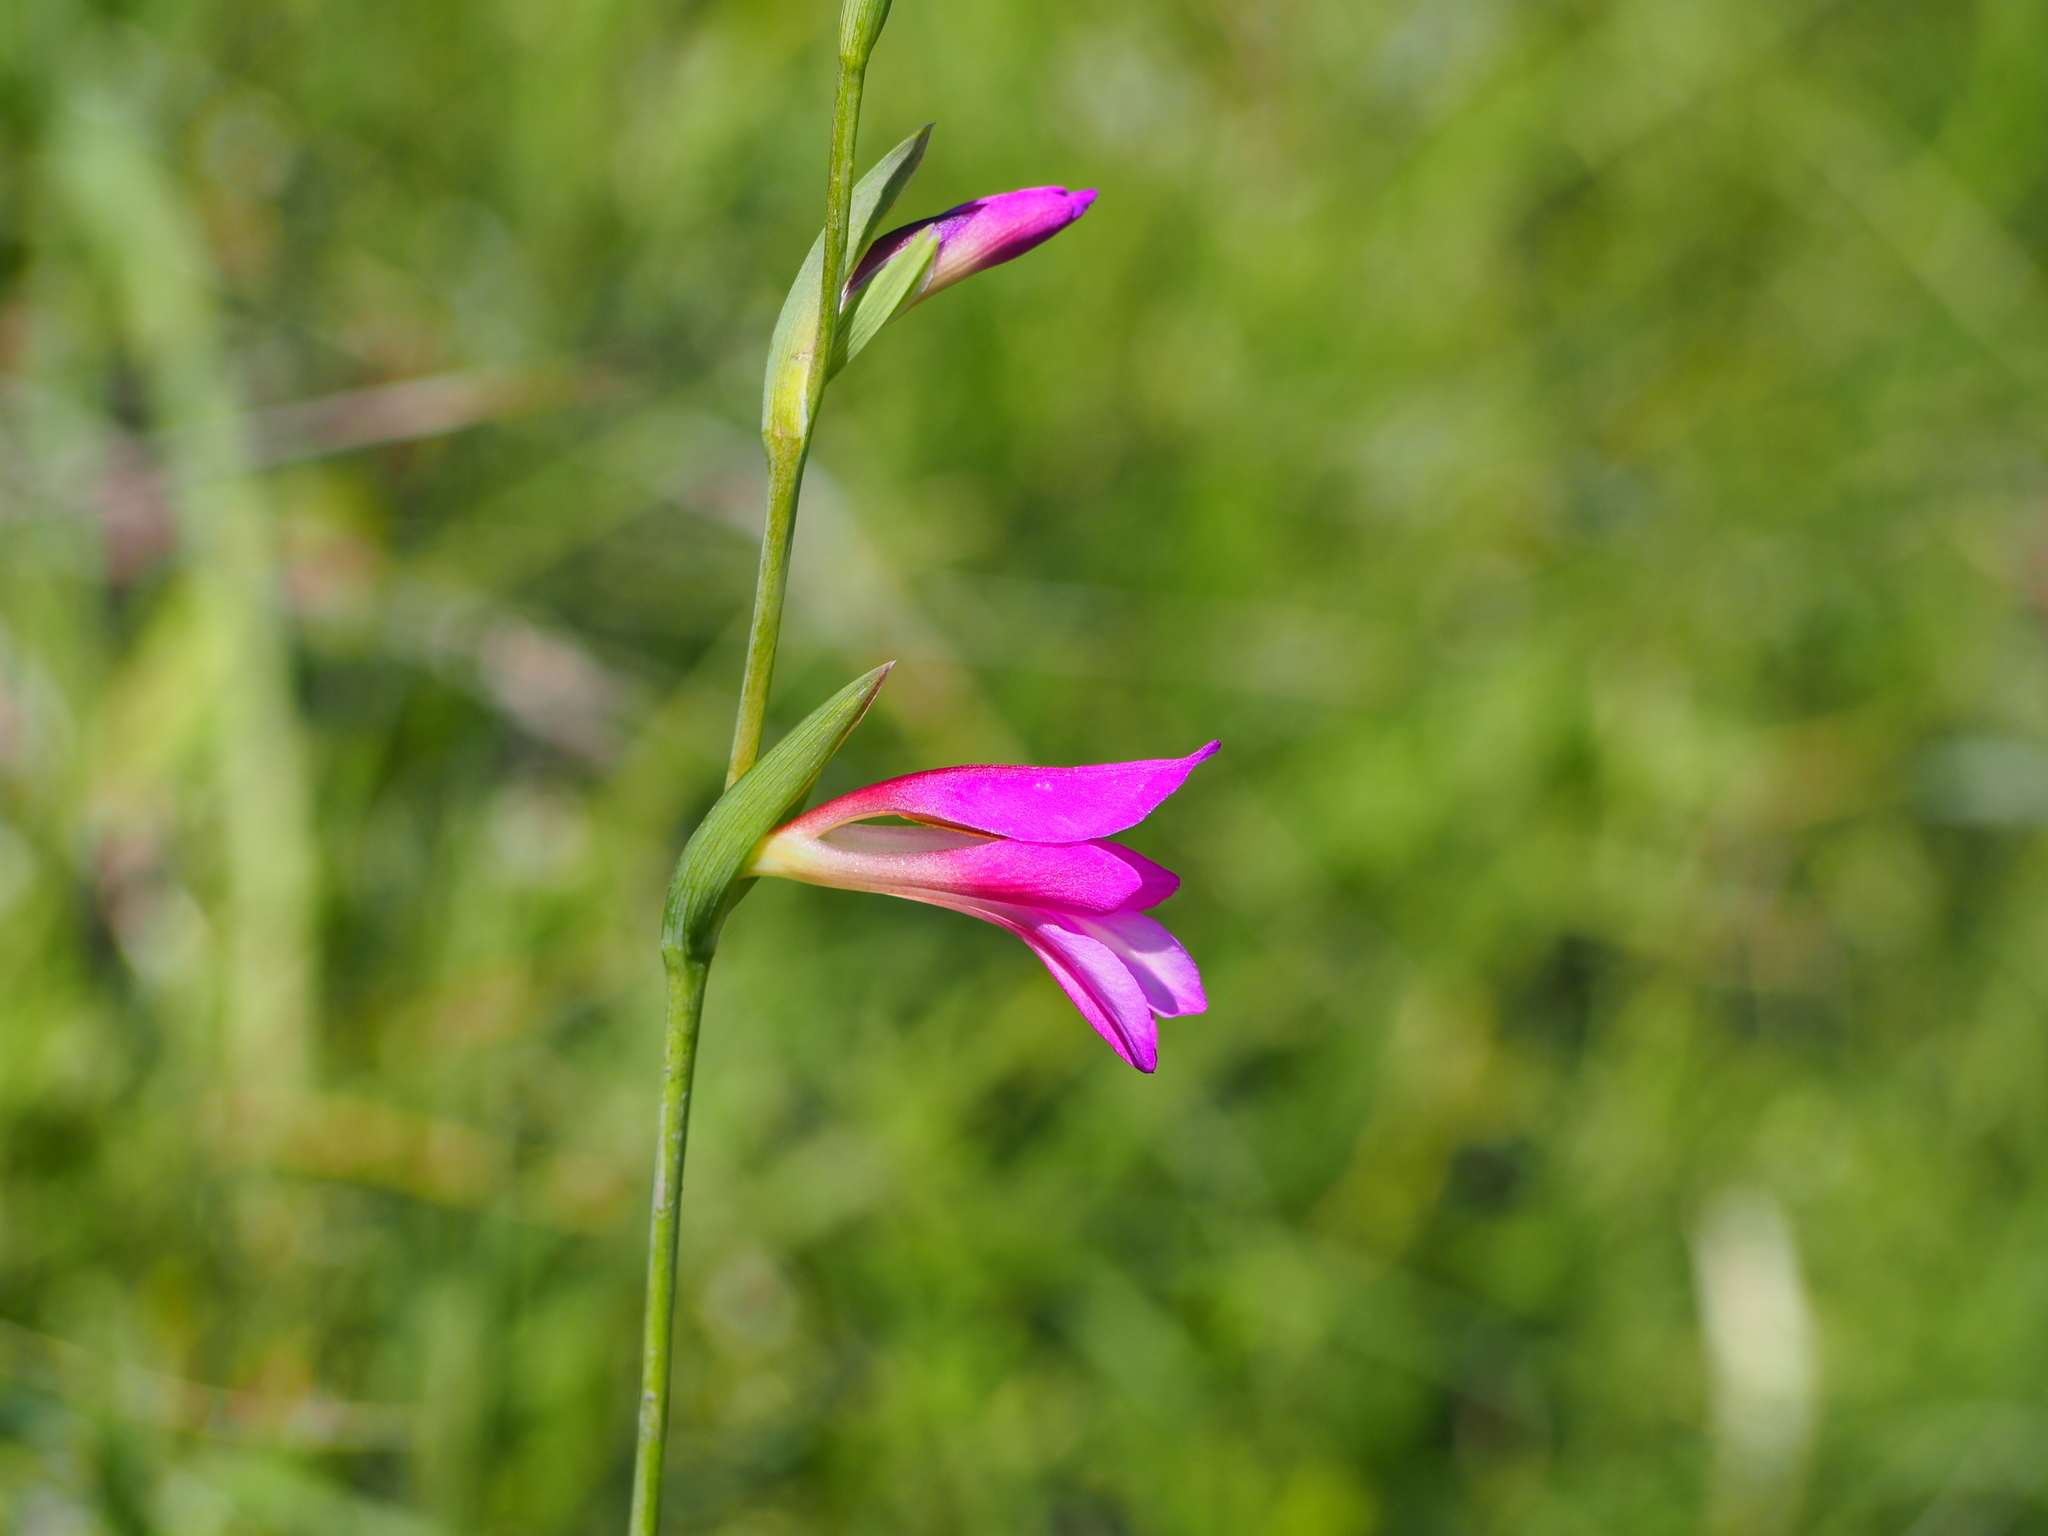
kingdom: Plantae
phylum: Tracheophyta
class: Liliopsida
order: Asparagales
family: Iridaceae
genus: Gladiolus
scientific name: Gladiolus italicus
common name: Field gladiolus
